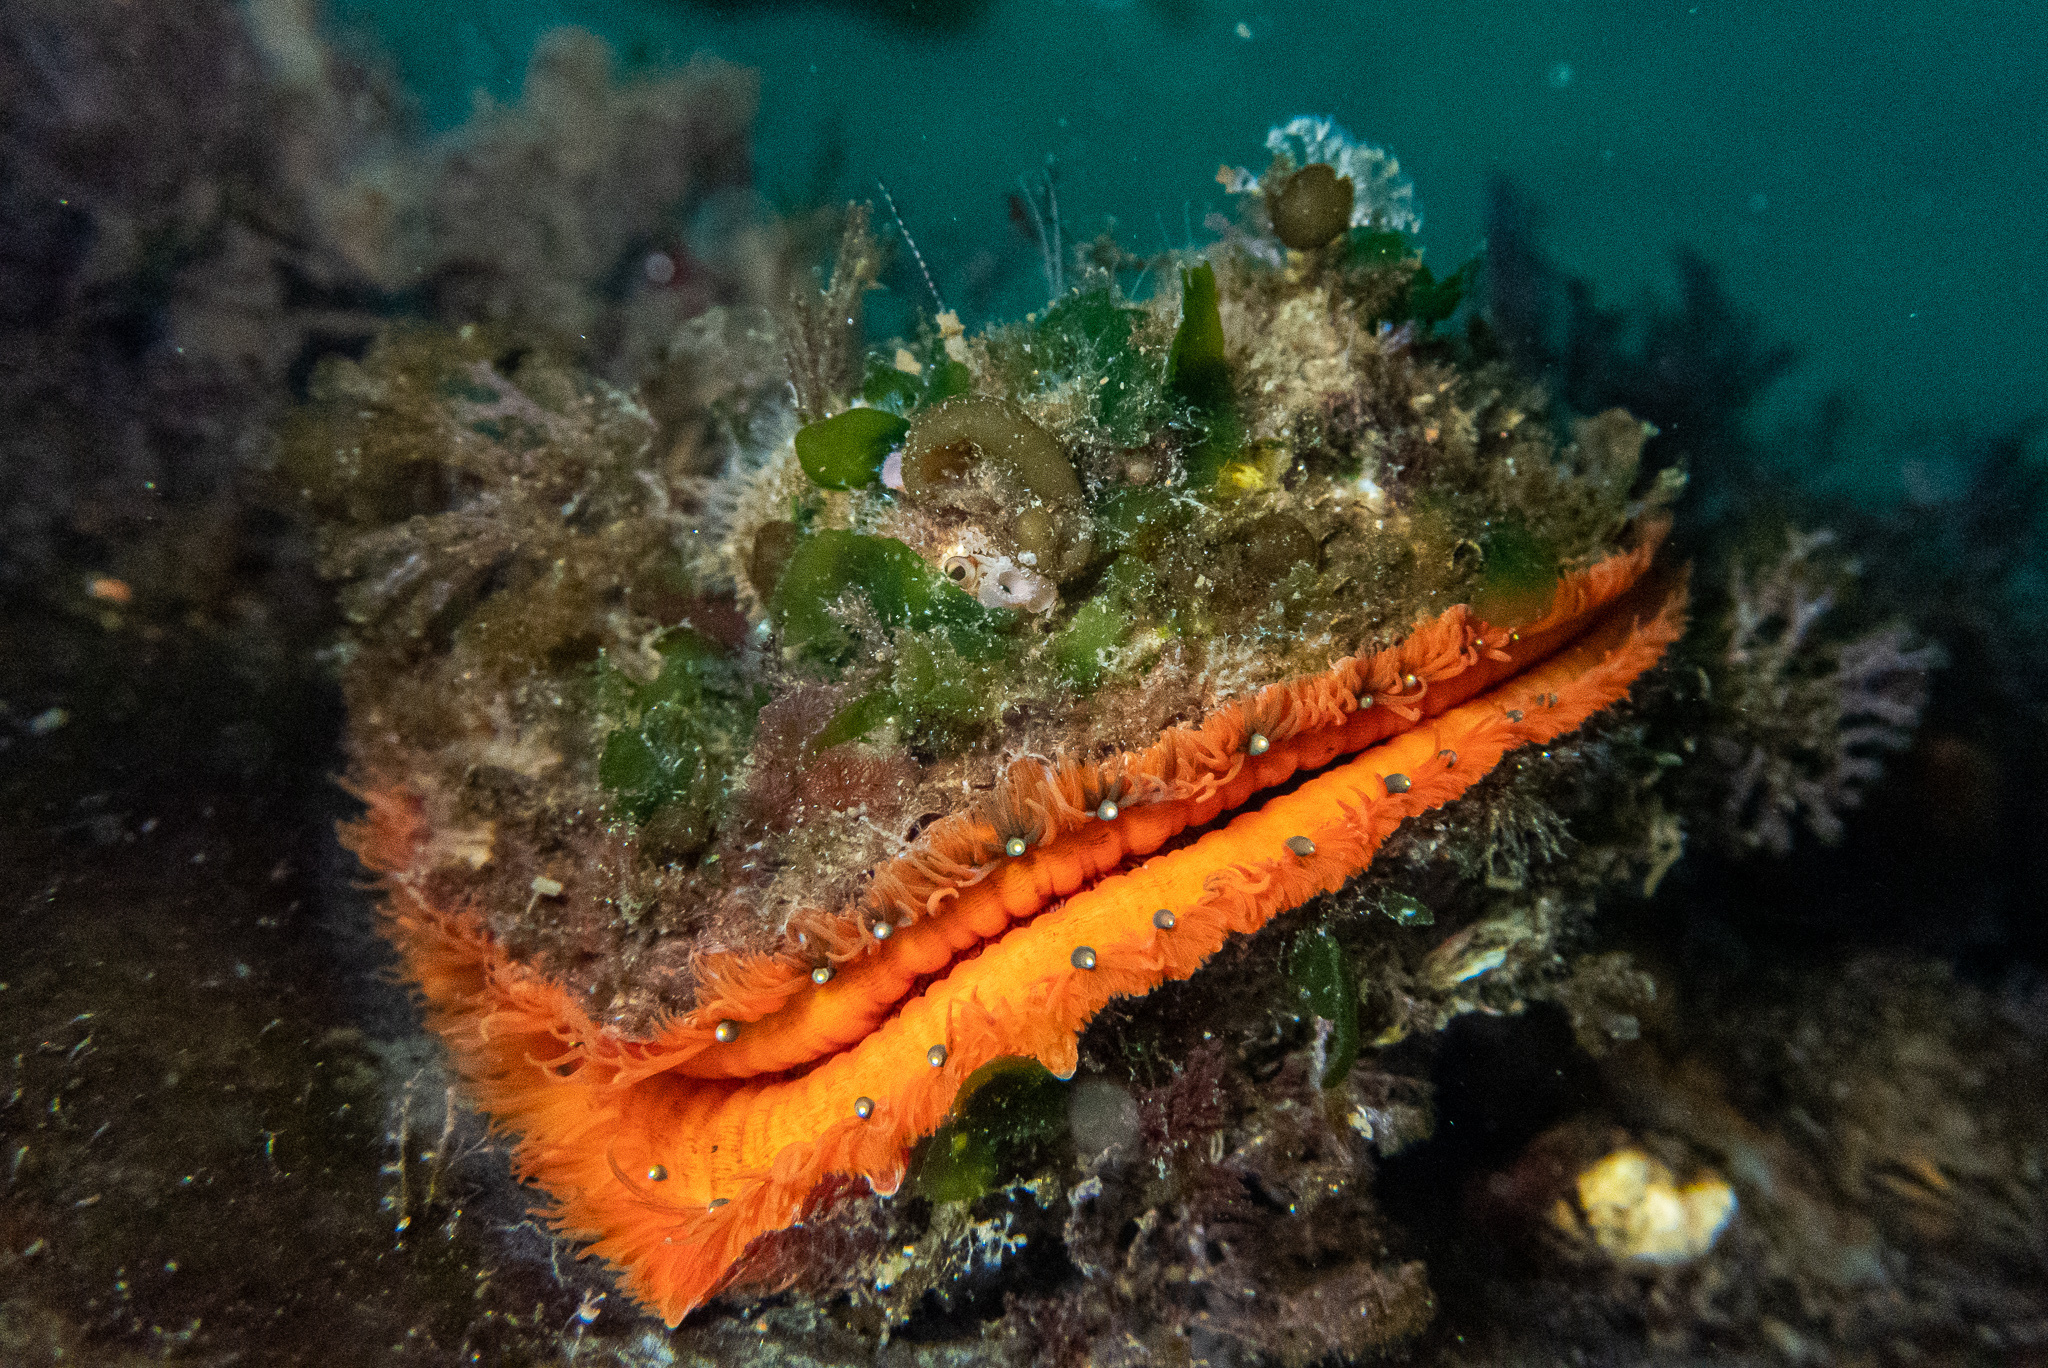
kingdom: Animalia
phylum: Mollusca
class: Bivalvia
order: Pectinida
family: Pectinidae
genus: Crassadoma
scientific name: Crassadoma gigantea
